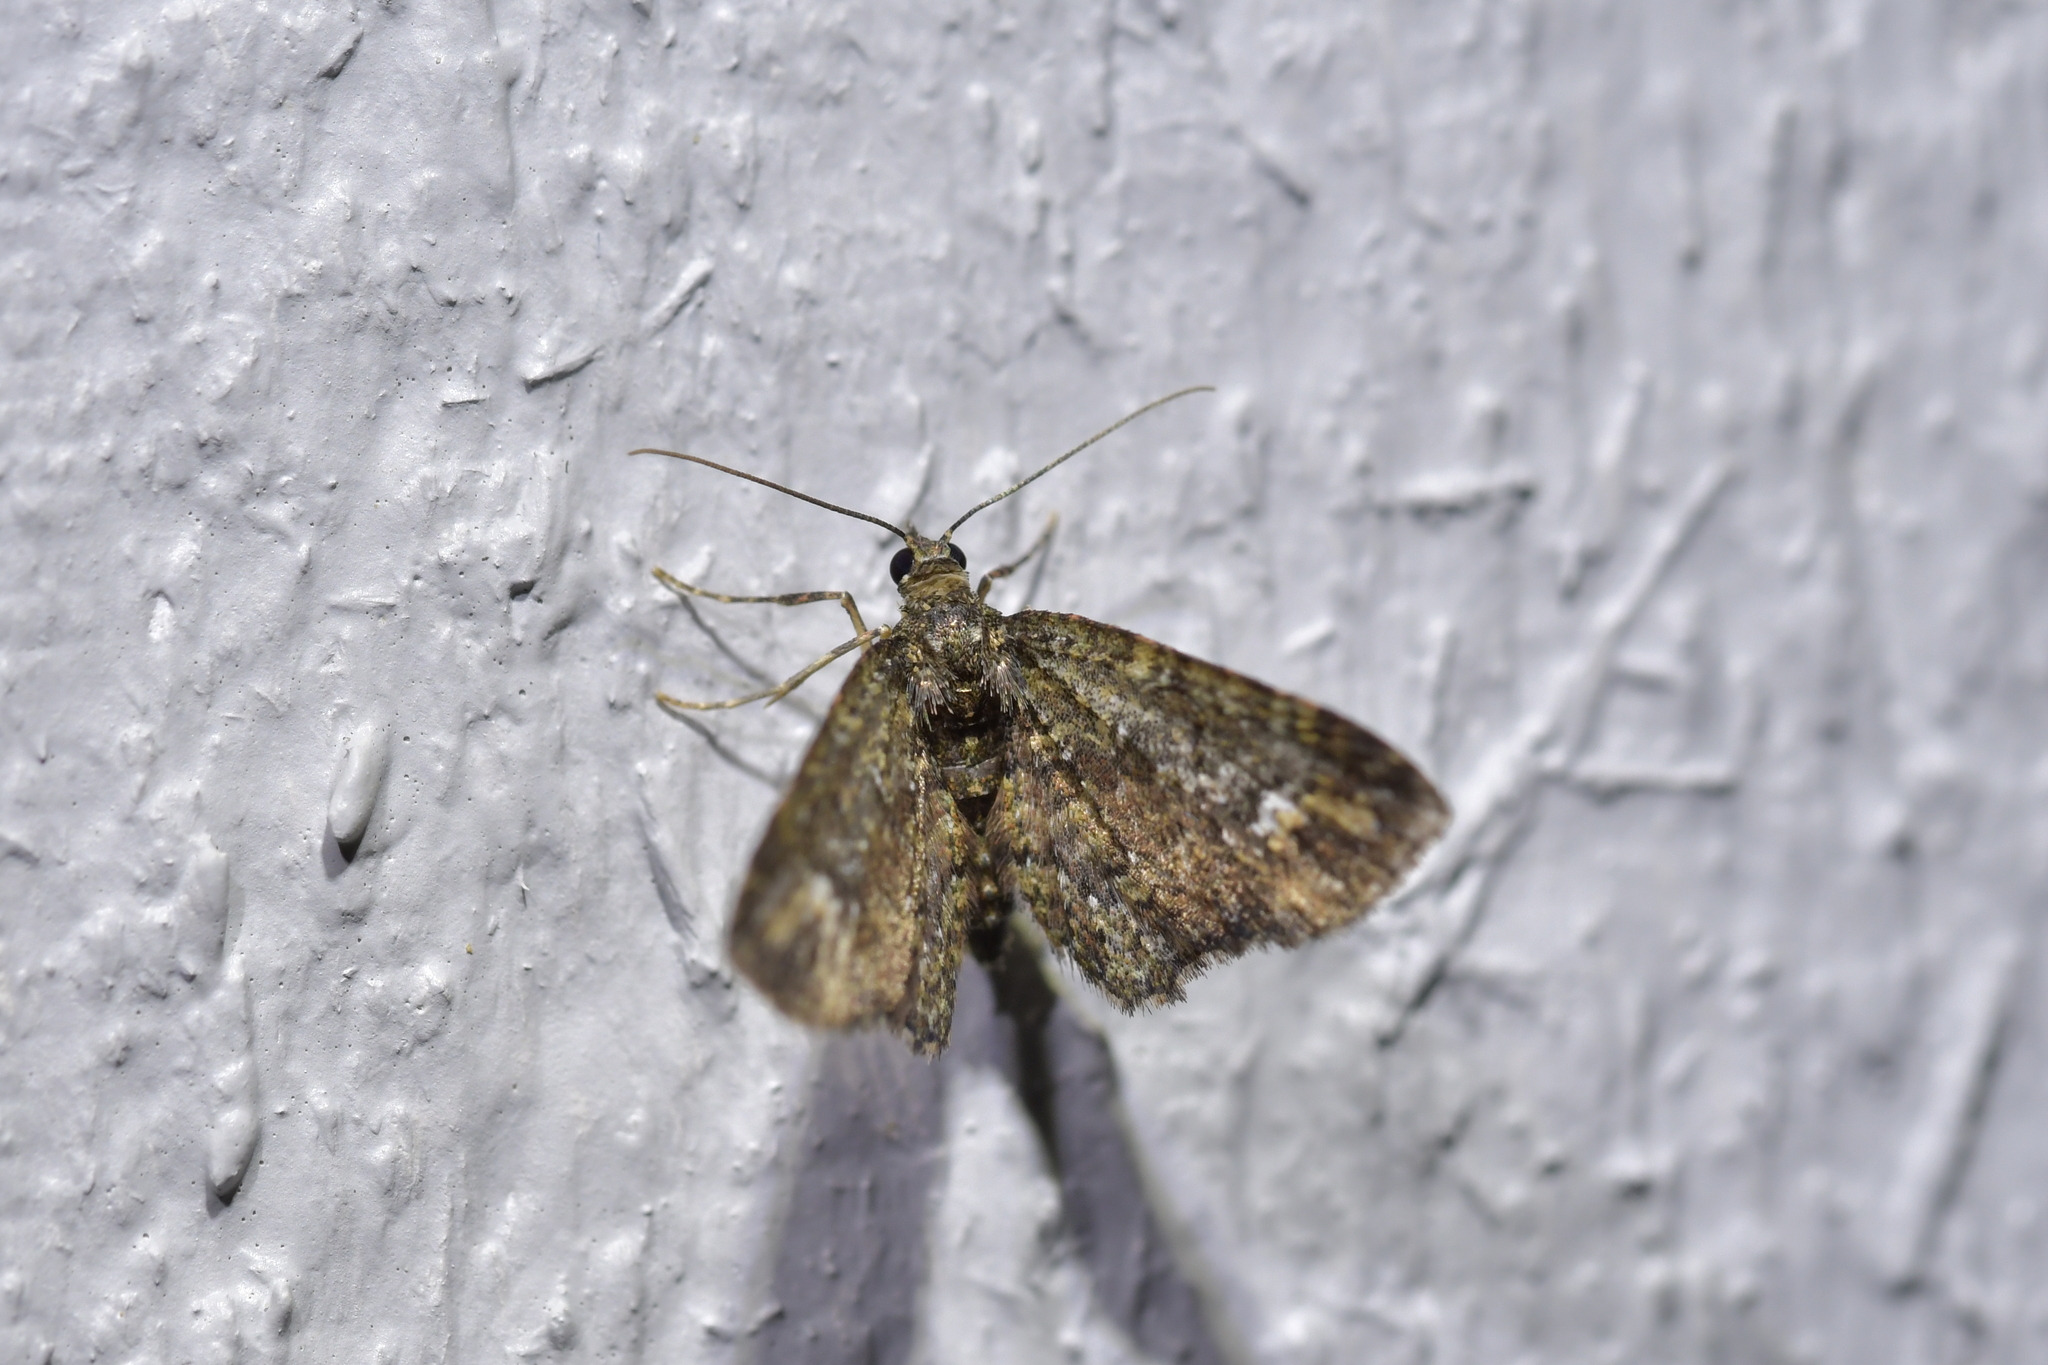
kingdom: Animalia
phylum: Arthropoda
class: Insecta
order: Lepidoptera
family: Geometridae
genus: Pasiphilodes
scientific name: Pasiphilodes testulata
